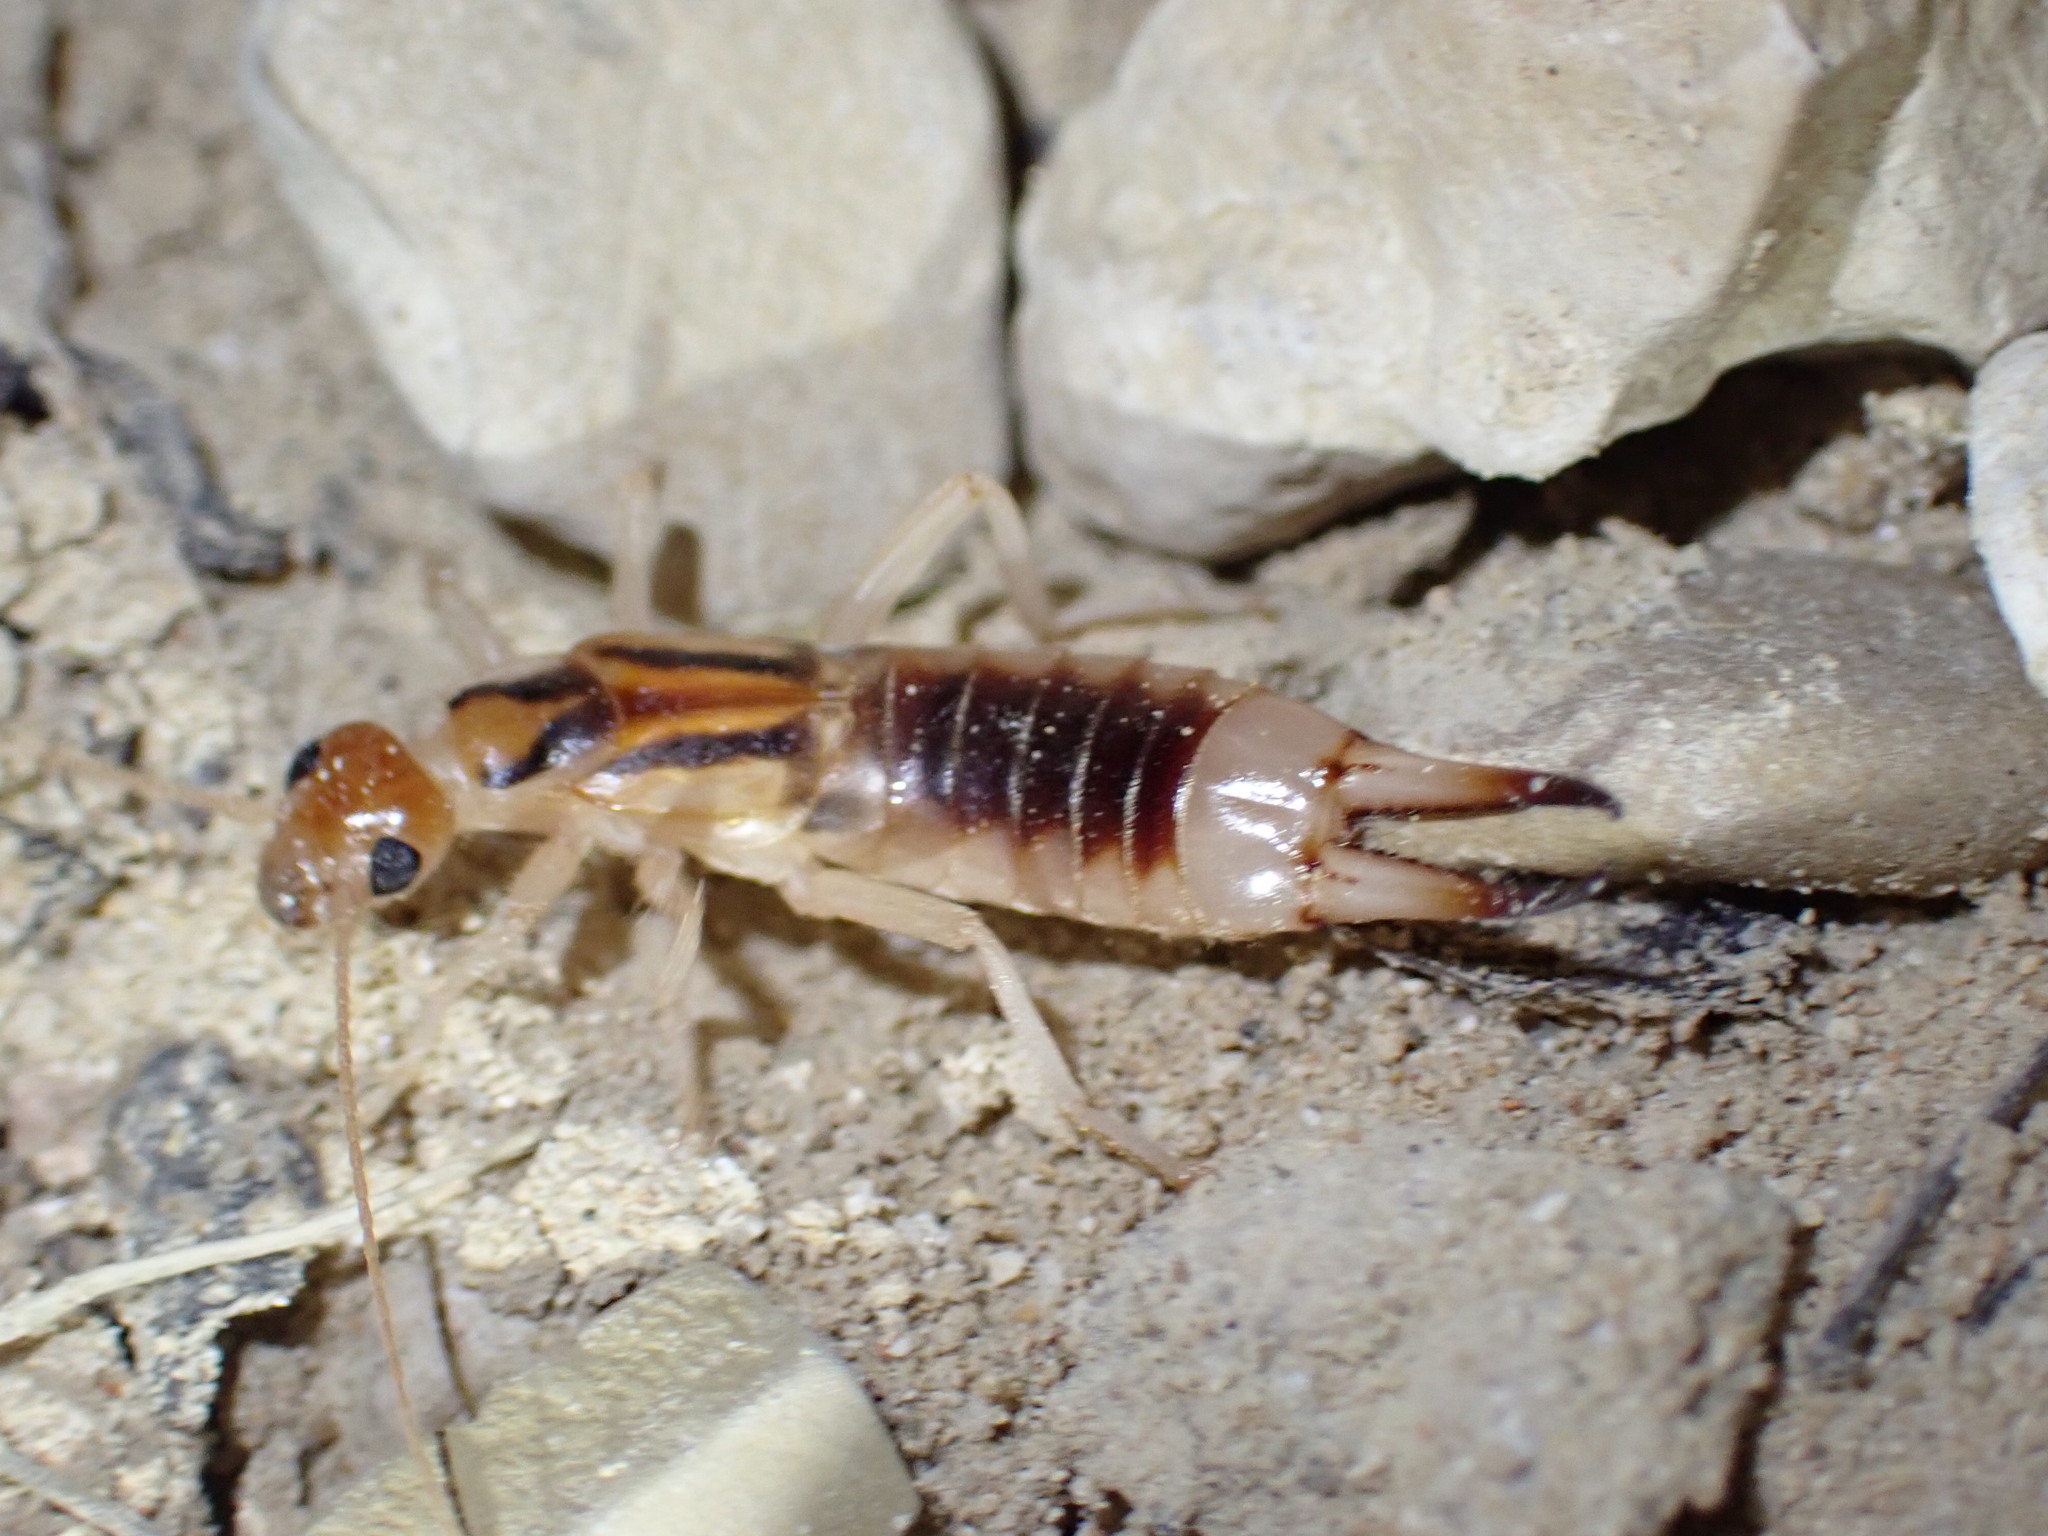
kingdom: Animalia
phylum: Arthropoda
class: Insecta
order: Dermaptera
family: Labiduridae
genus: Labidura
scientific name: Labidura riparia
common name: Striped earwig
